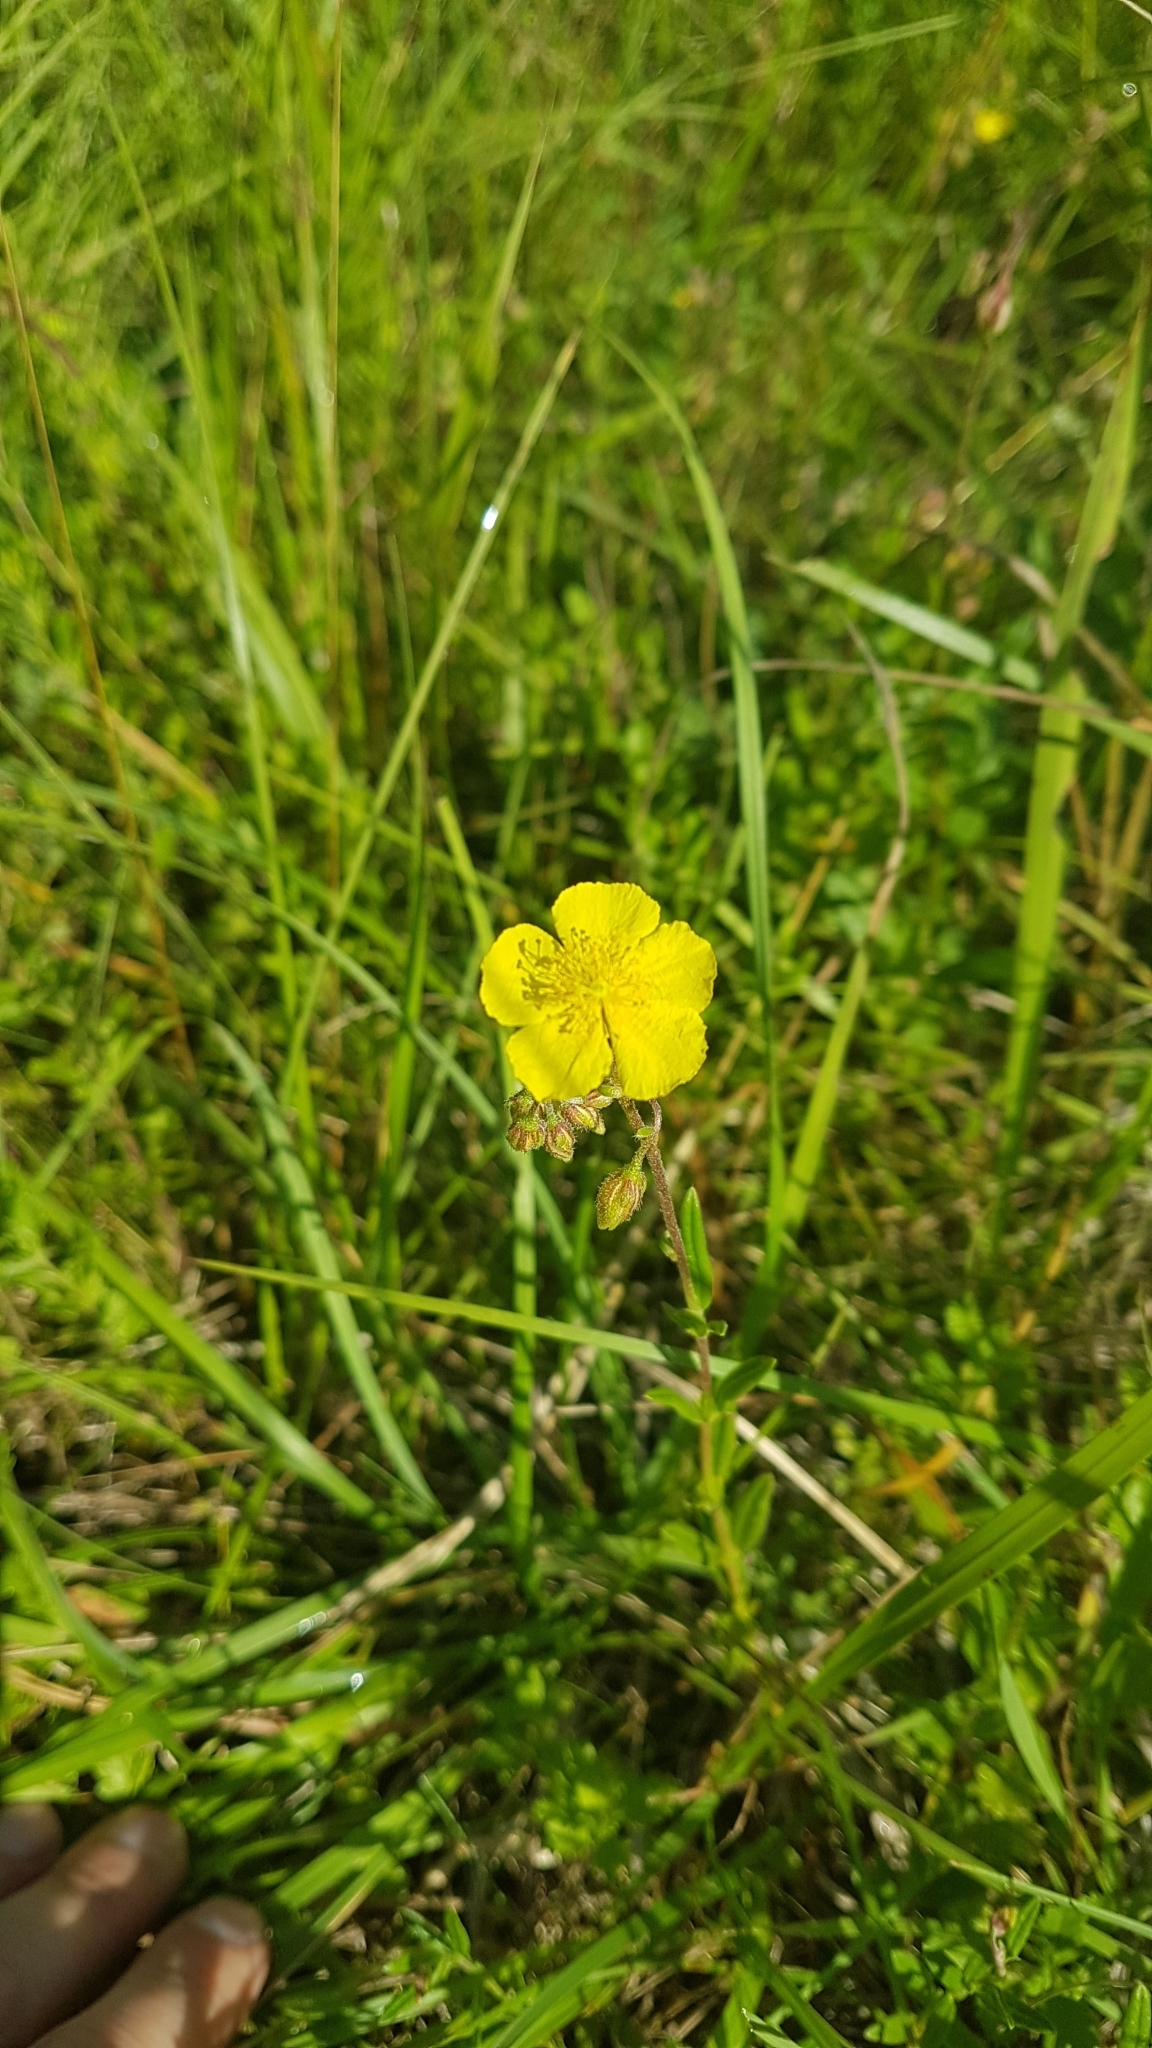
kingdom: Plantae
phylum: Tracheophyta
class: Magnoliopsida
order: Malvales
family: Cistaceae
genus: Helianthemum
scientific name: Helianthemum nummularium
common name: Common rock-rose
